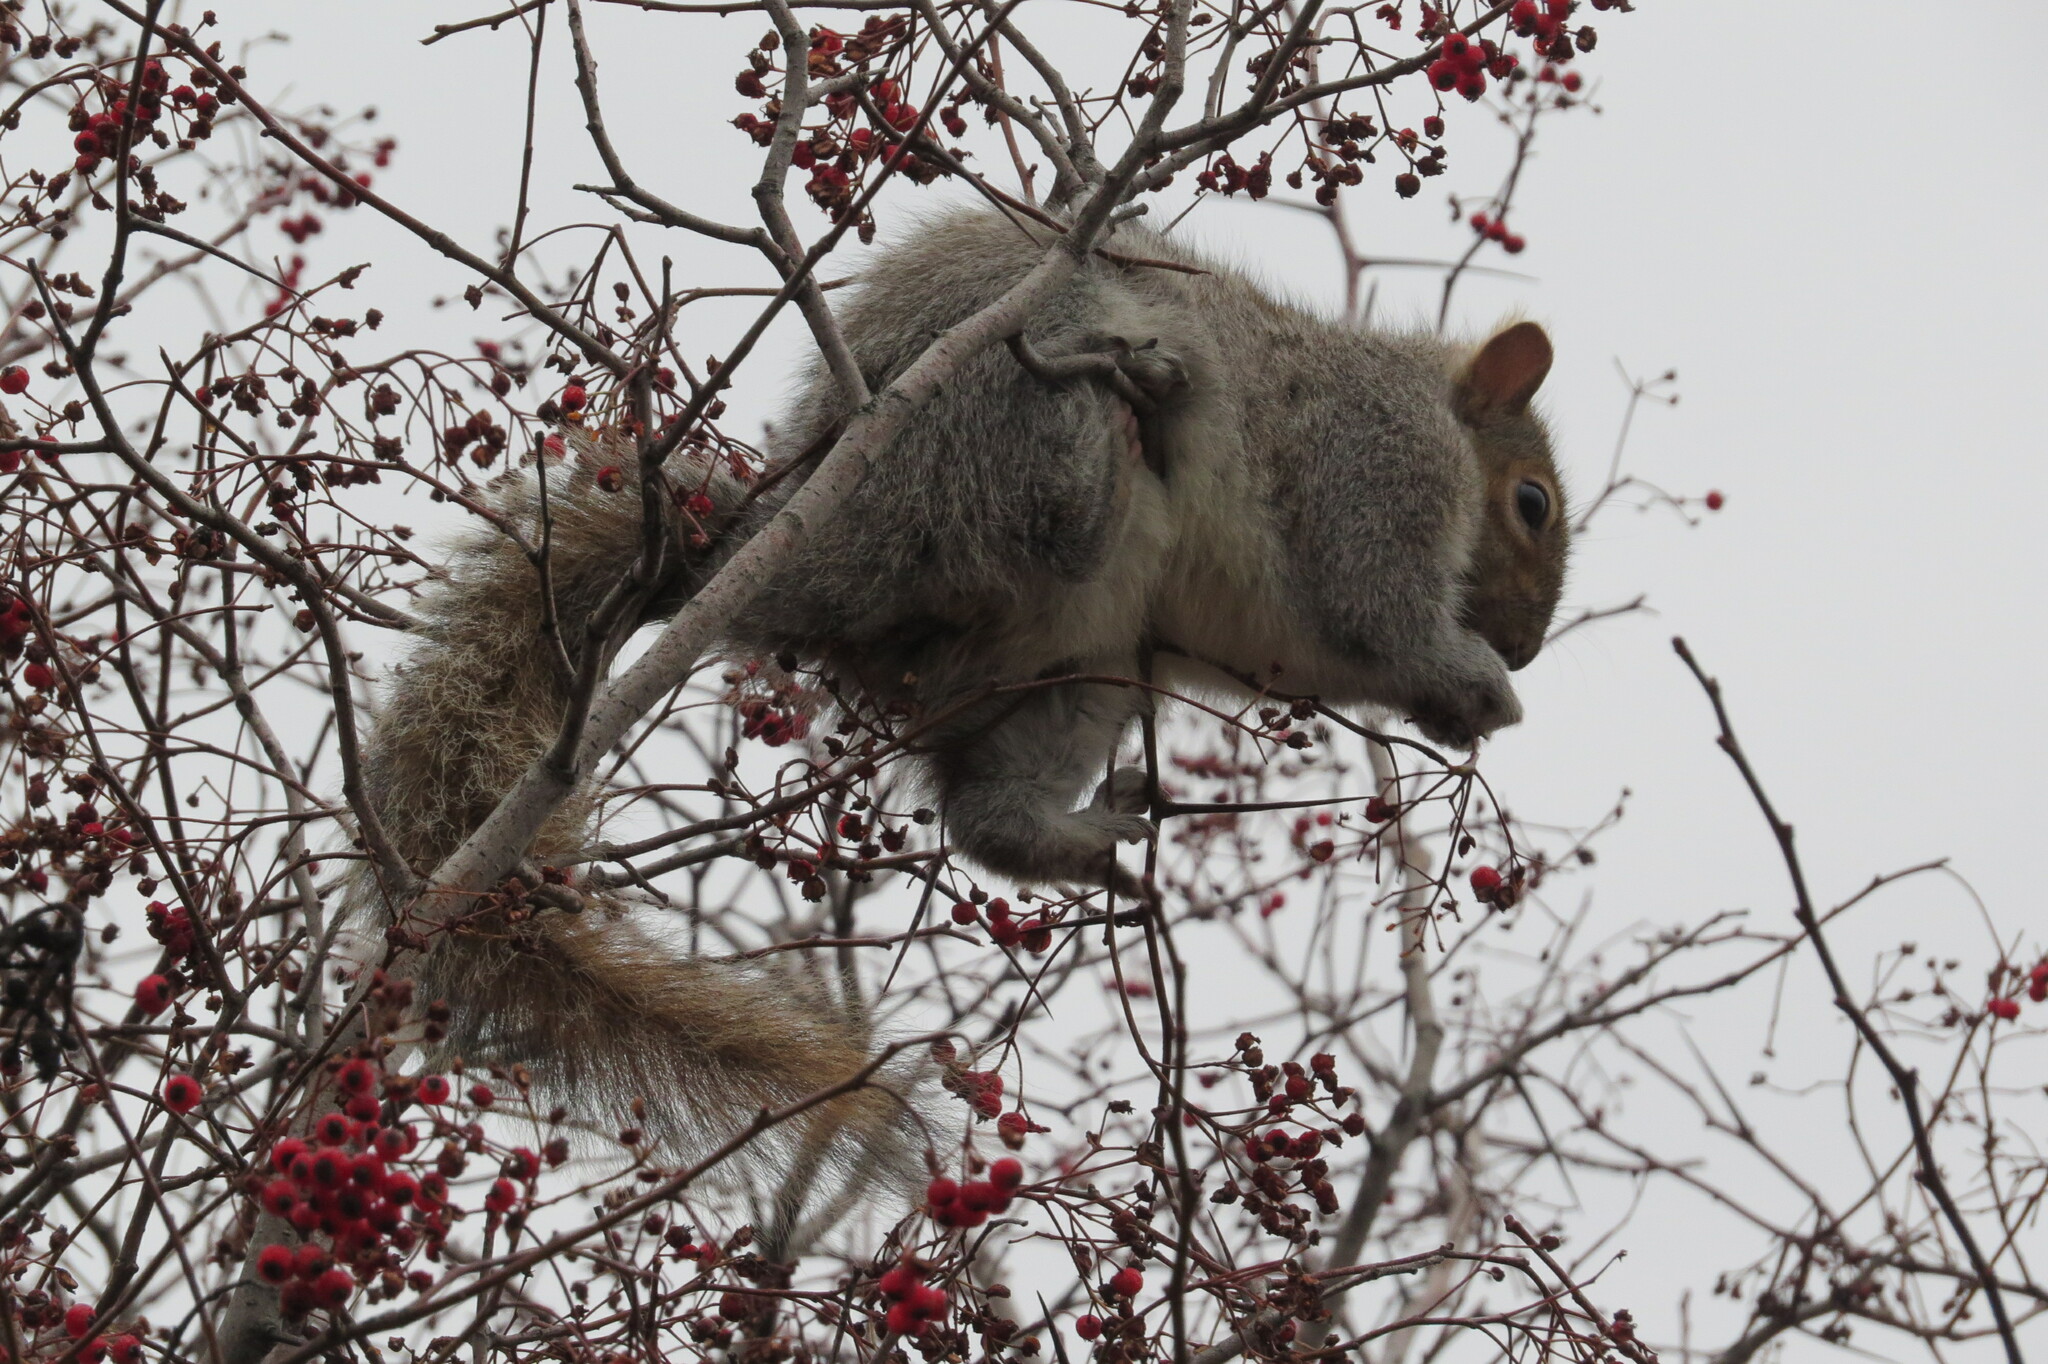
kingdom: Animalia
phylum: Chordata
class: Mammalia
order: Rodentia
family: Sciuridae
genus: Sciurus
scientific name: Sciurus carolinensis
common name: Eastern gray squirrel
